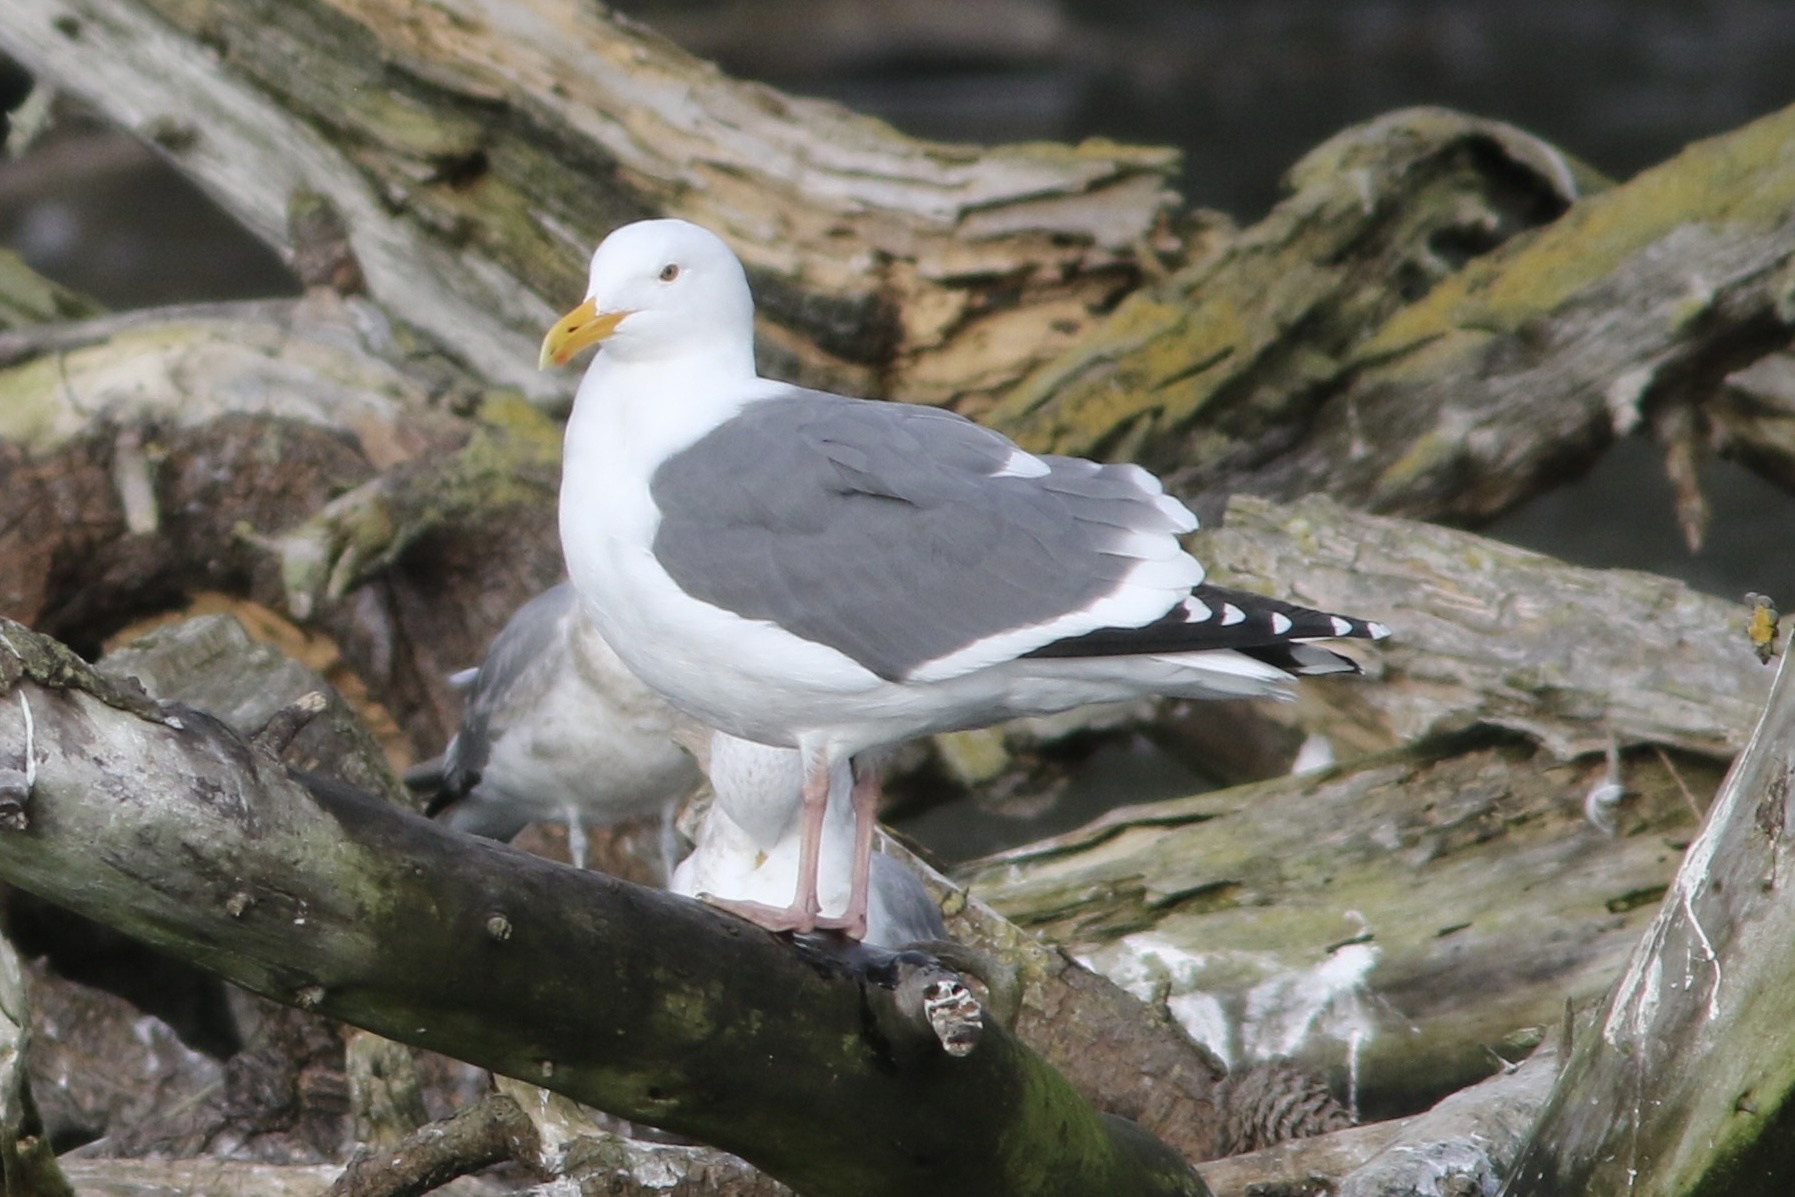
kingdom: Animalia
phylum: Chordata
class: Aves
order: Charadriiformes
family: Laridae
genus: Larus
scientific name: Larus occidentalis
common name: Western gull
